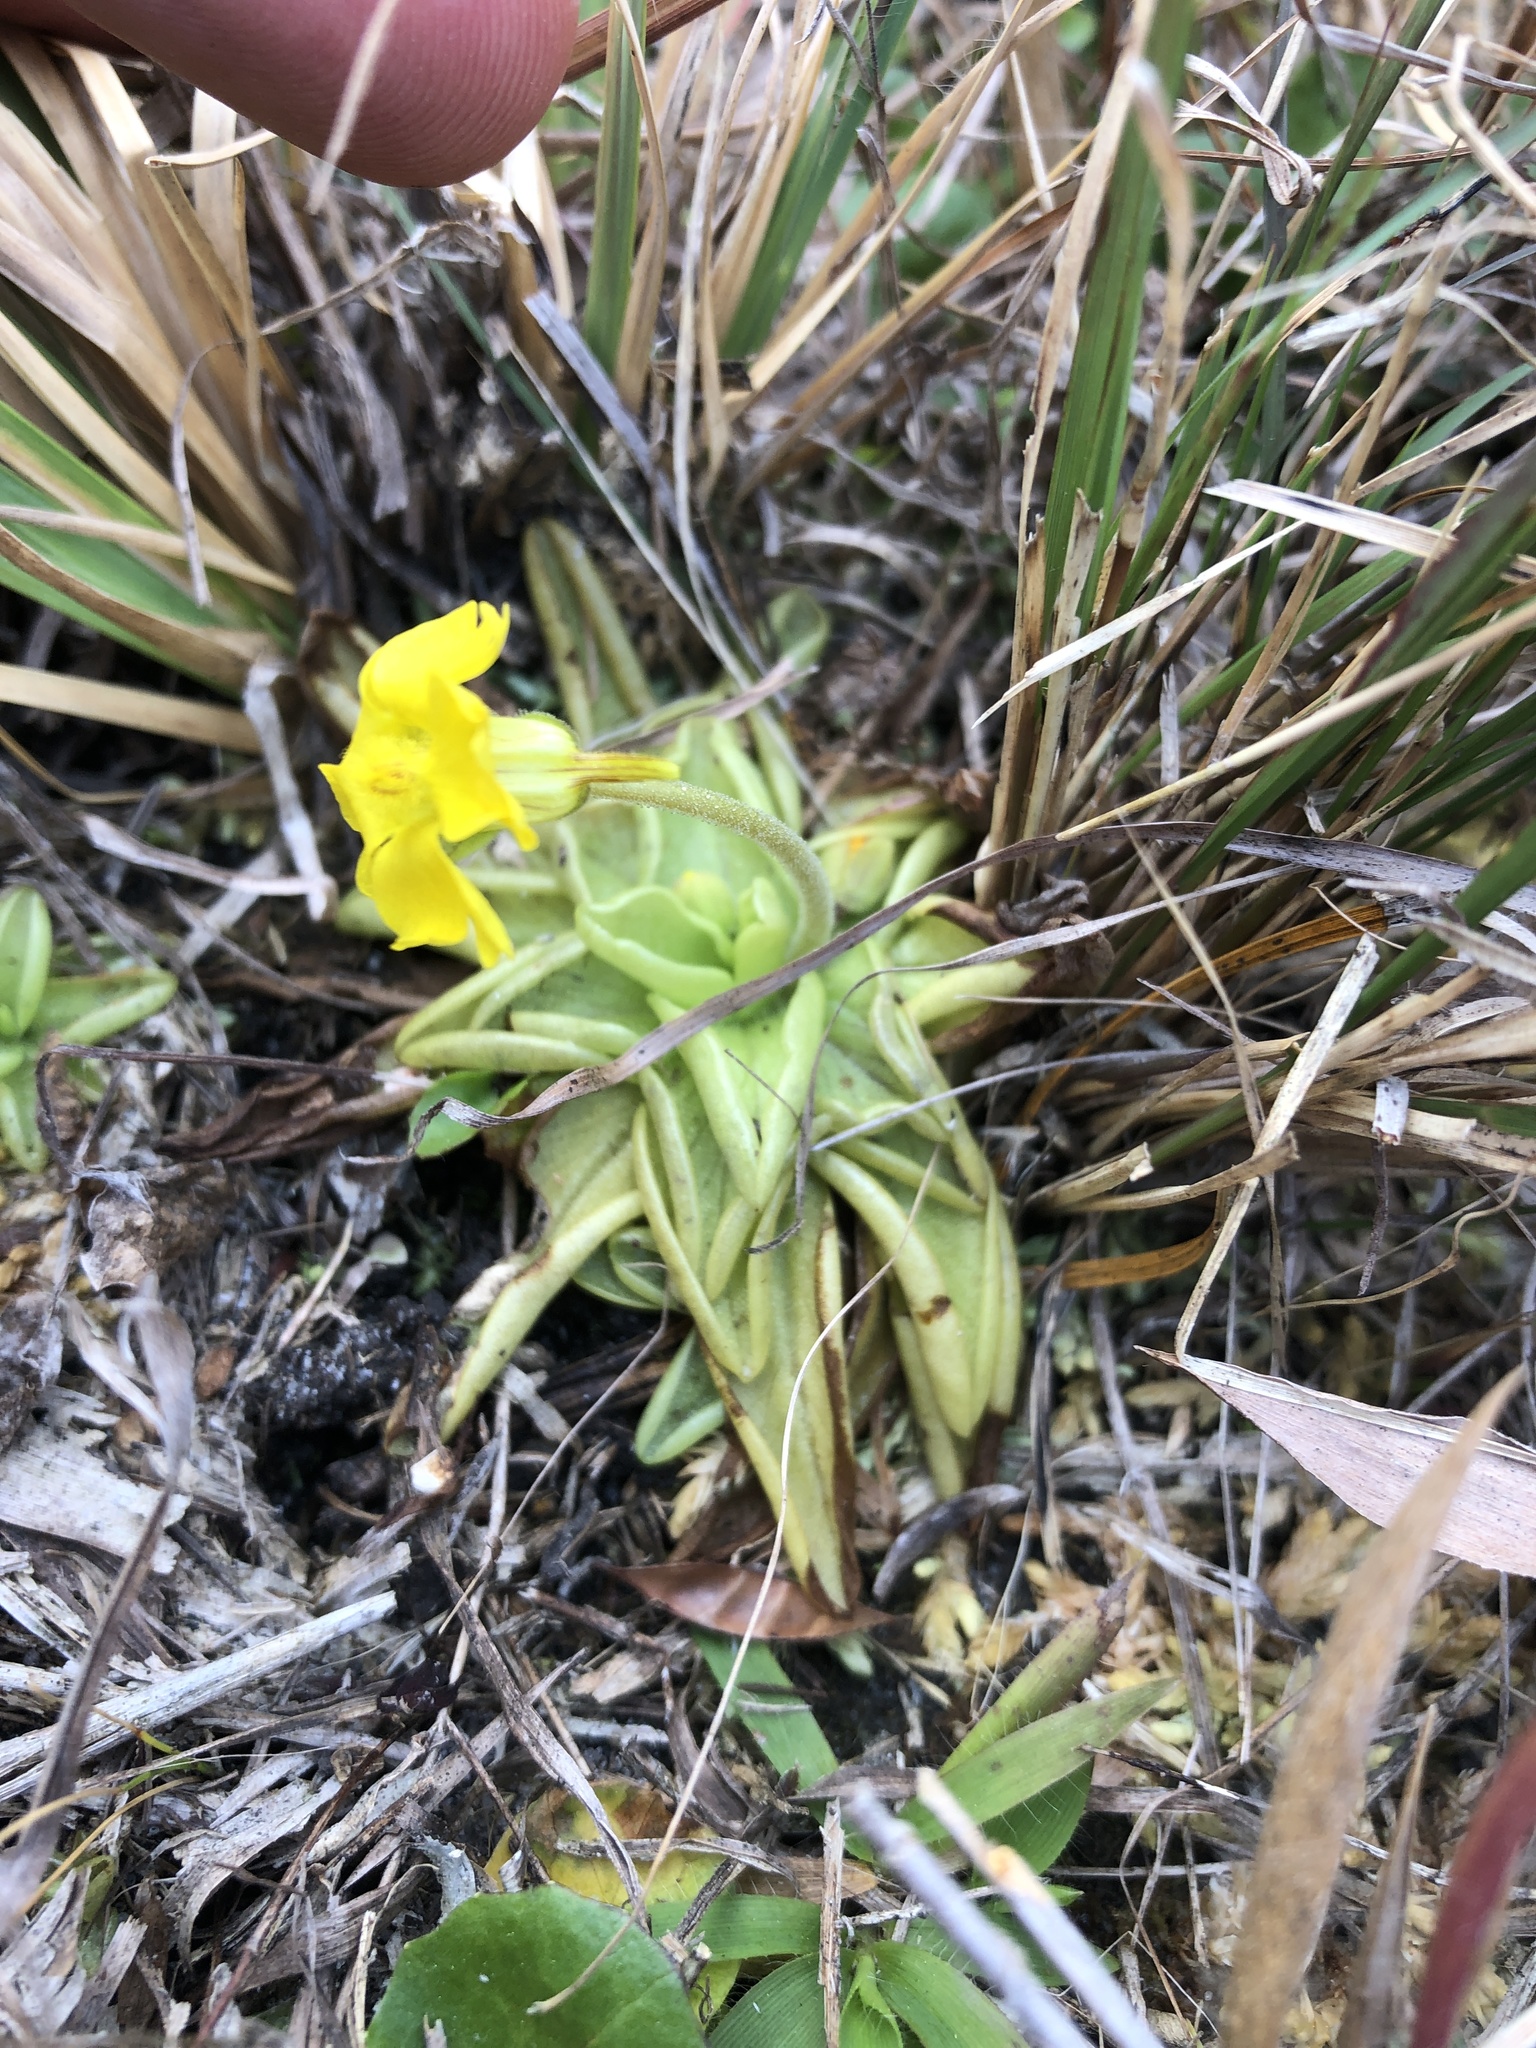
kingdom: Plantae
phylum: Tracheophyta
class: Magnoliopsida
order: Lamiales
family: Lentibulariaceae
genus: Pinguicula
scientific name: Pinguicula lutea
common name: Yellow butterwort
